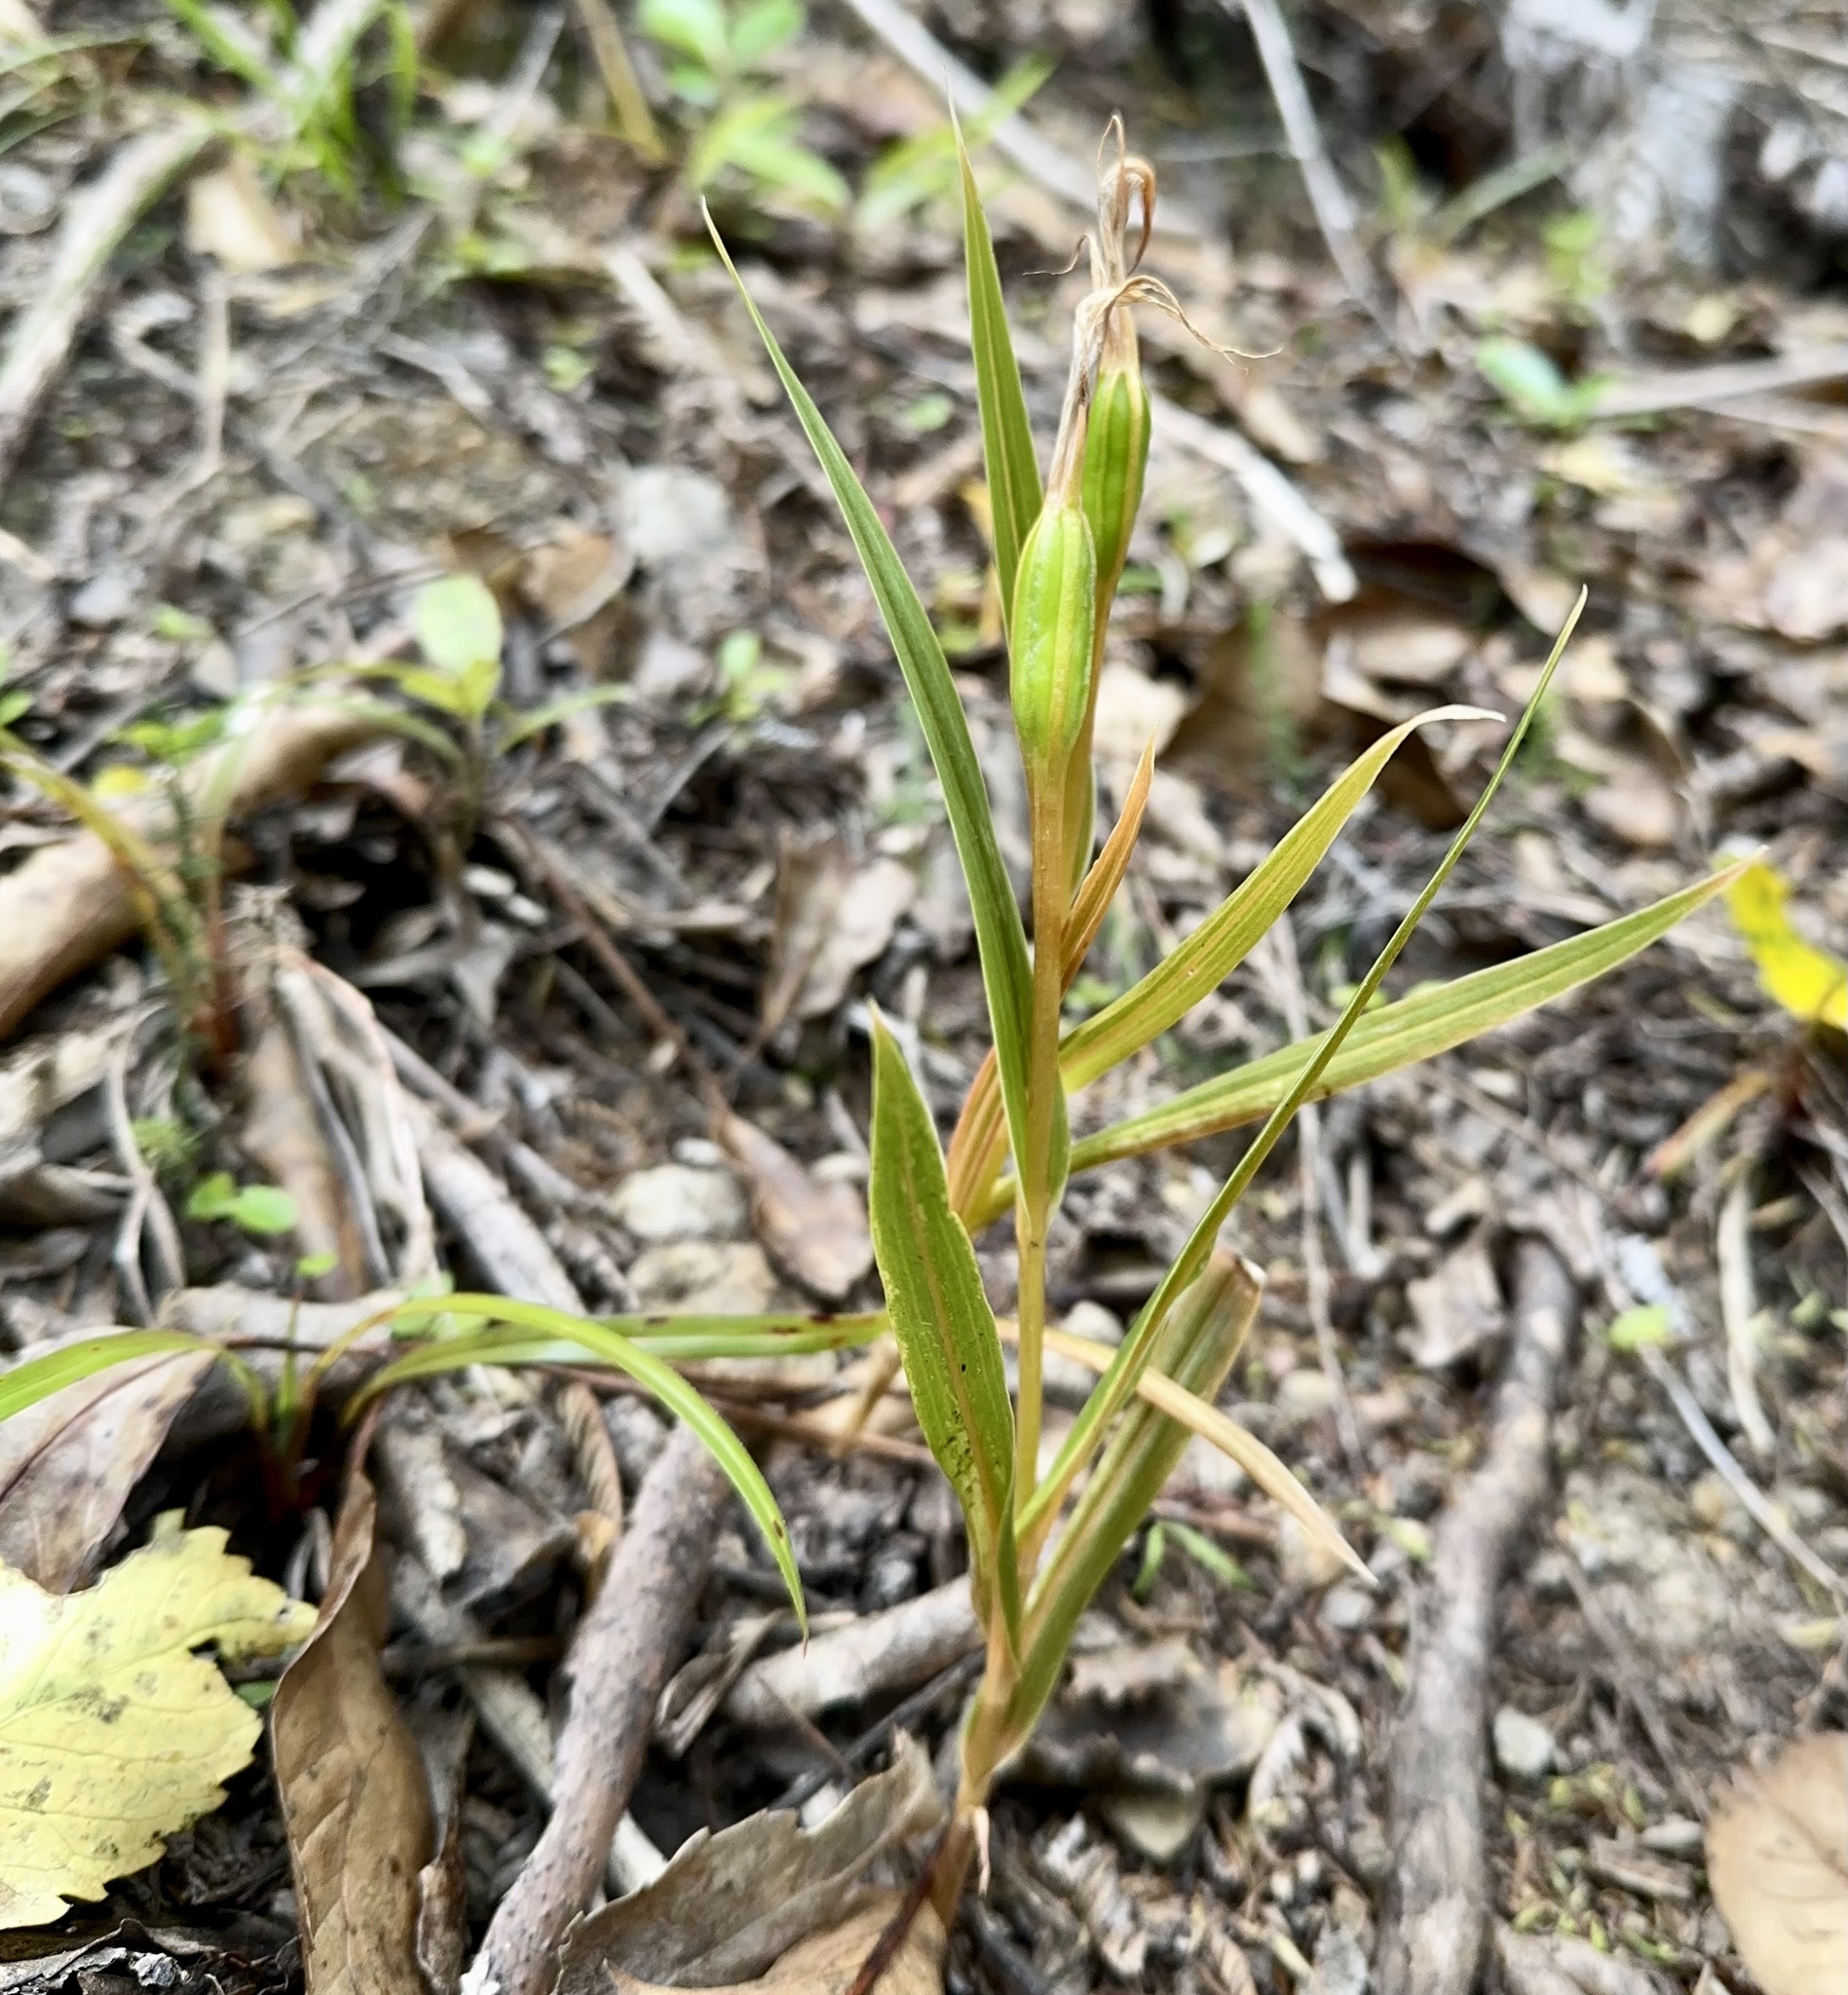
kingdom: Plantae
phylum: Tracheophyta
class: Liliopsida
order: Asparagales
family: Orchidaceae
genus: Pterostylis
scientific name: Pterostylis cardiostigma
